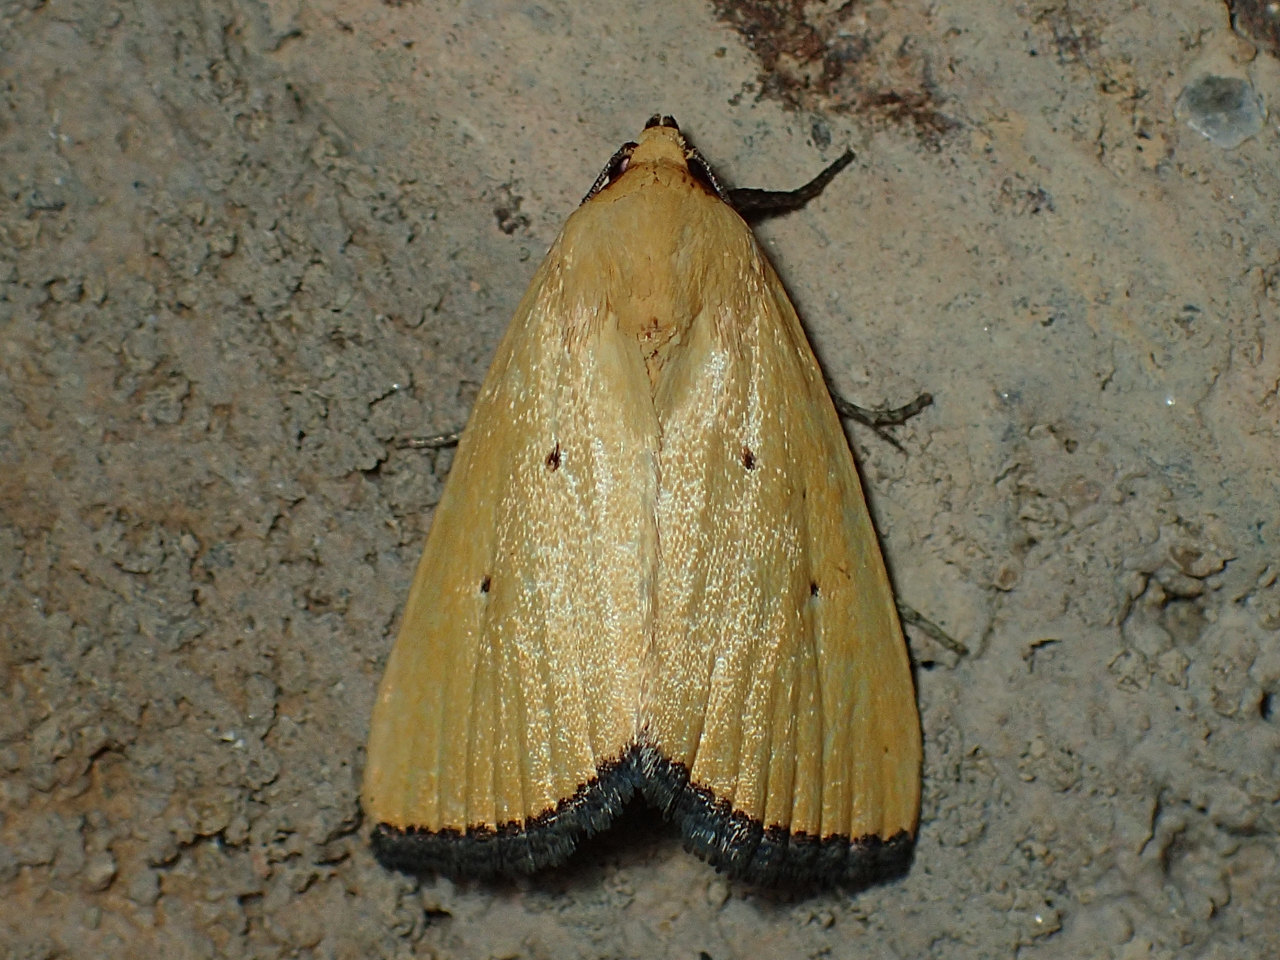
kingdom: Animalia
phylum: Arthropoda
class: Insecta
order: Lepidoptera
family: Noctuidae
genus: Marimatha
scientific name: Marimatha nigrofimbria
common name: Black-bordered lemon moth
